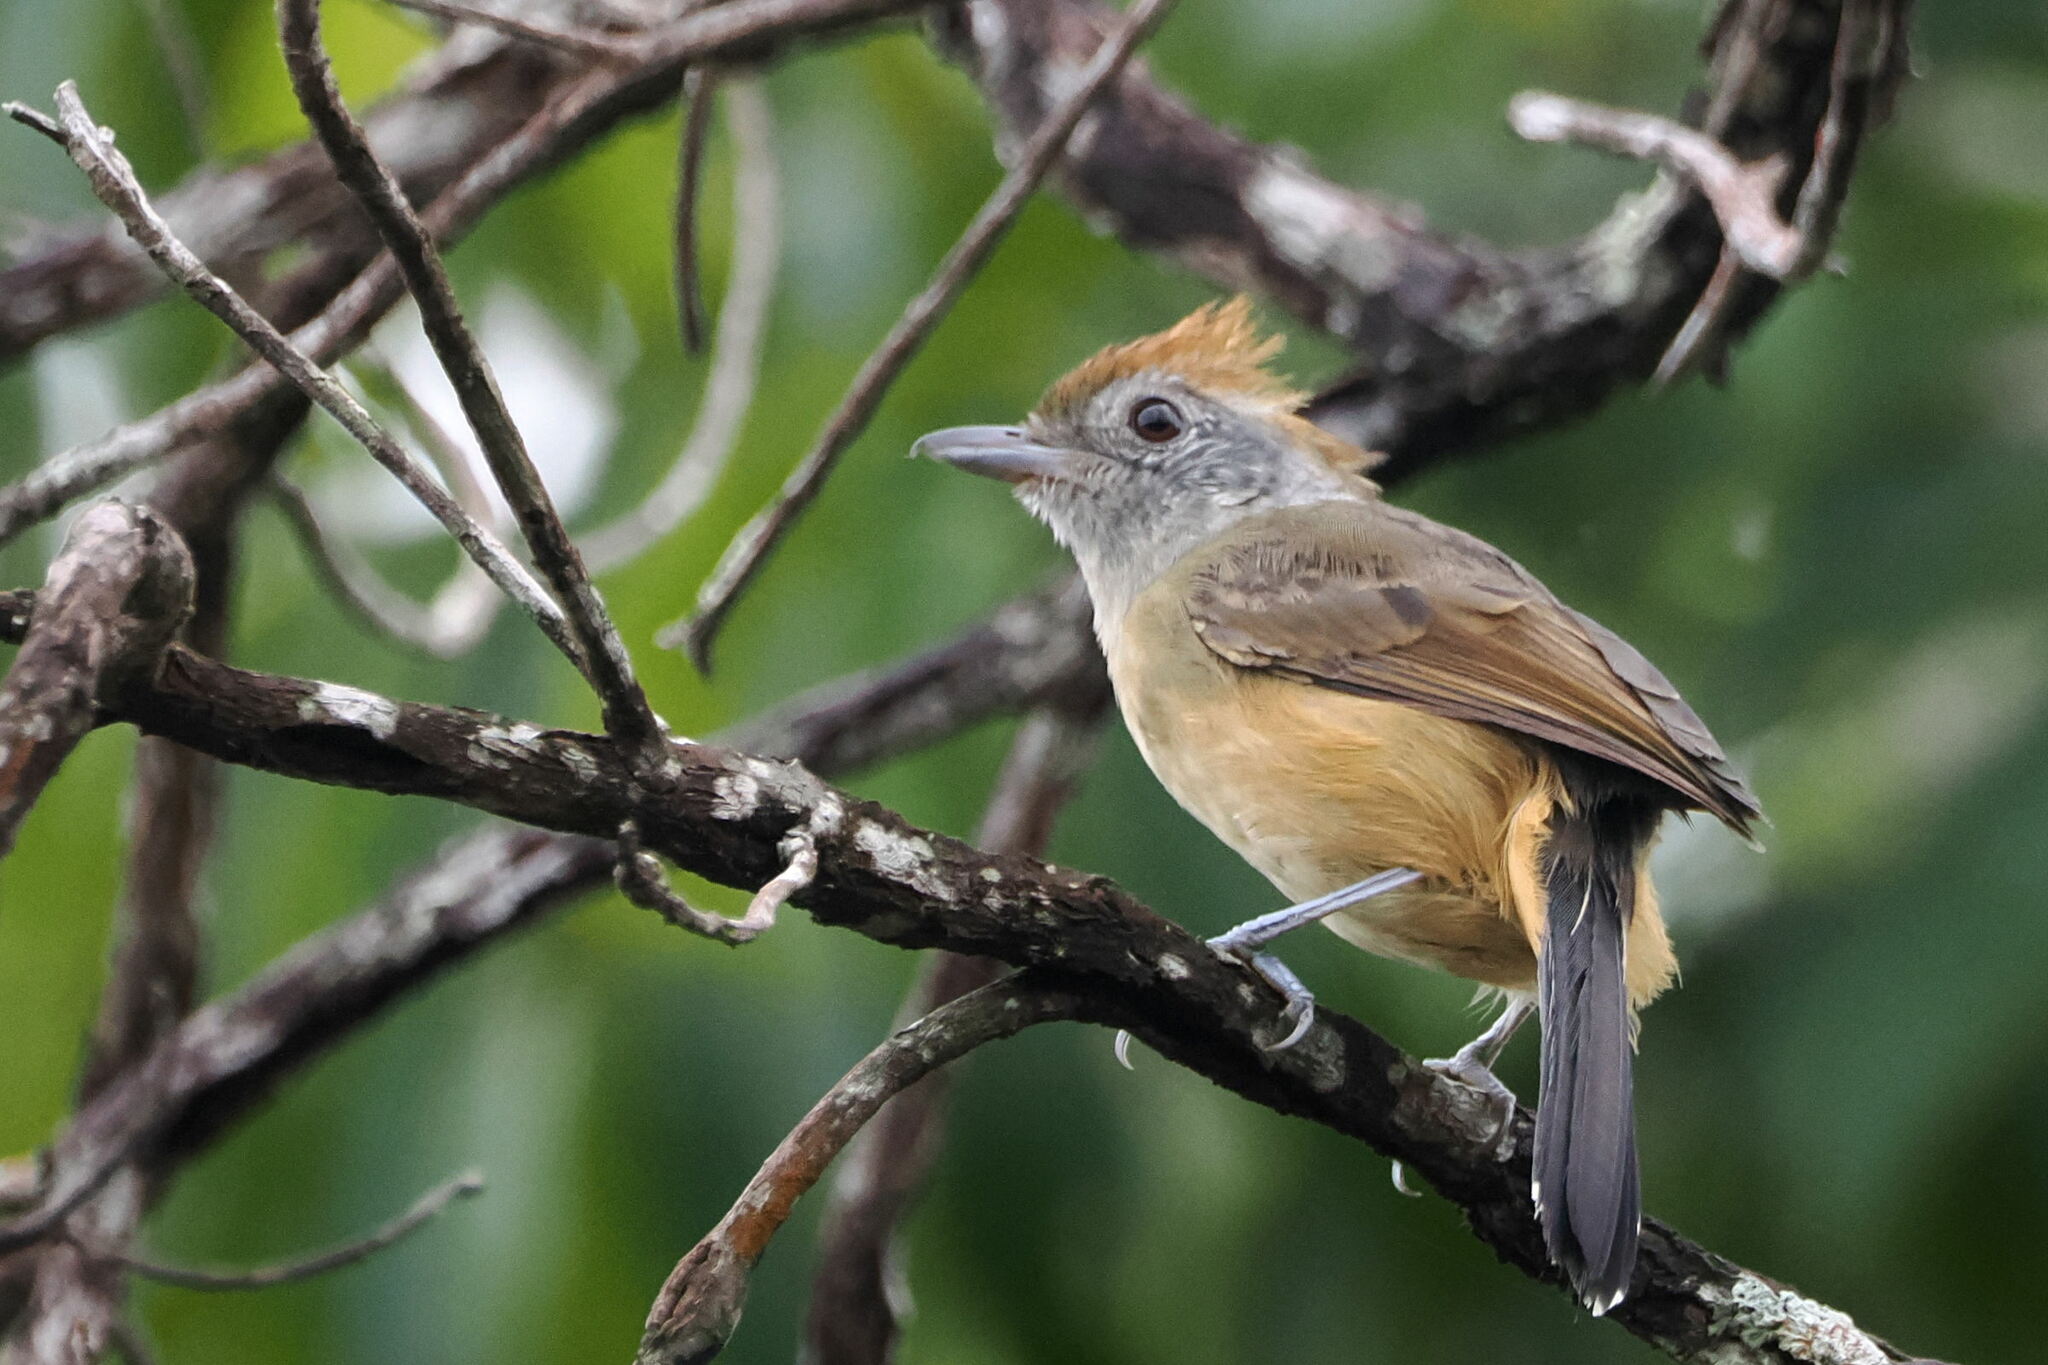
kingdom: Animalia
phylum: Chordata
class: Aves
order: Passeriformes
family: Thamnophilidae
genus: Thamnophilus
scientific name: Thamnophilus torquatus
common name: Rufous-winged antshrike
